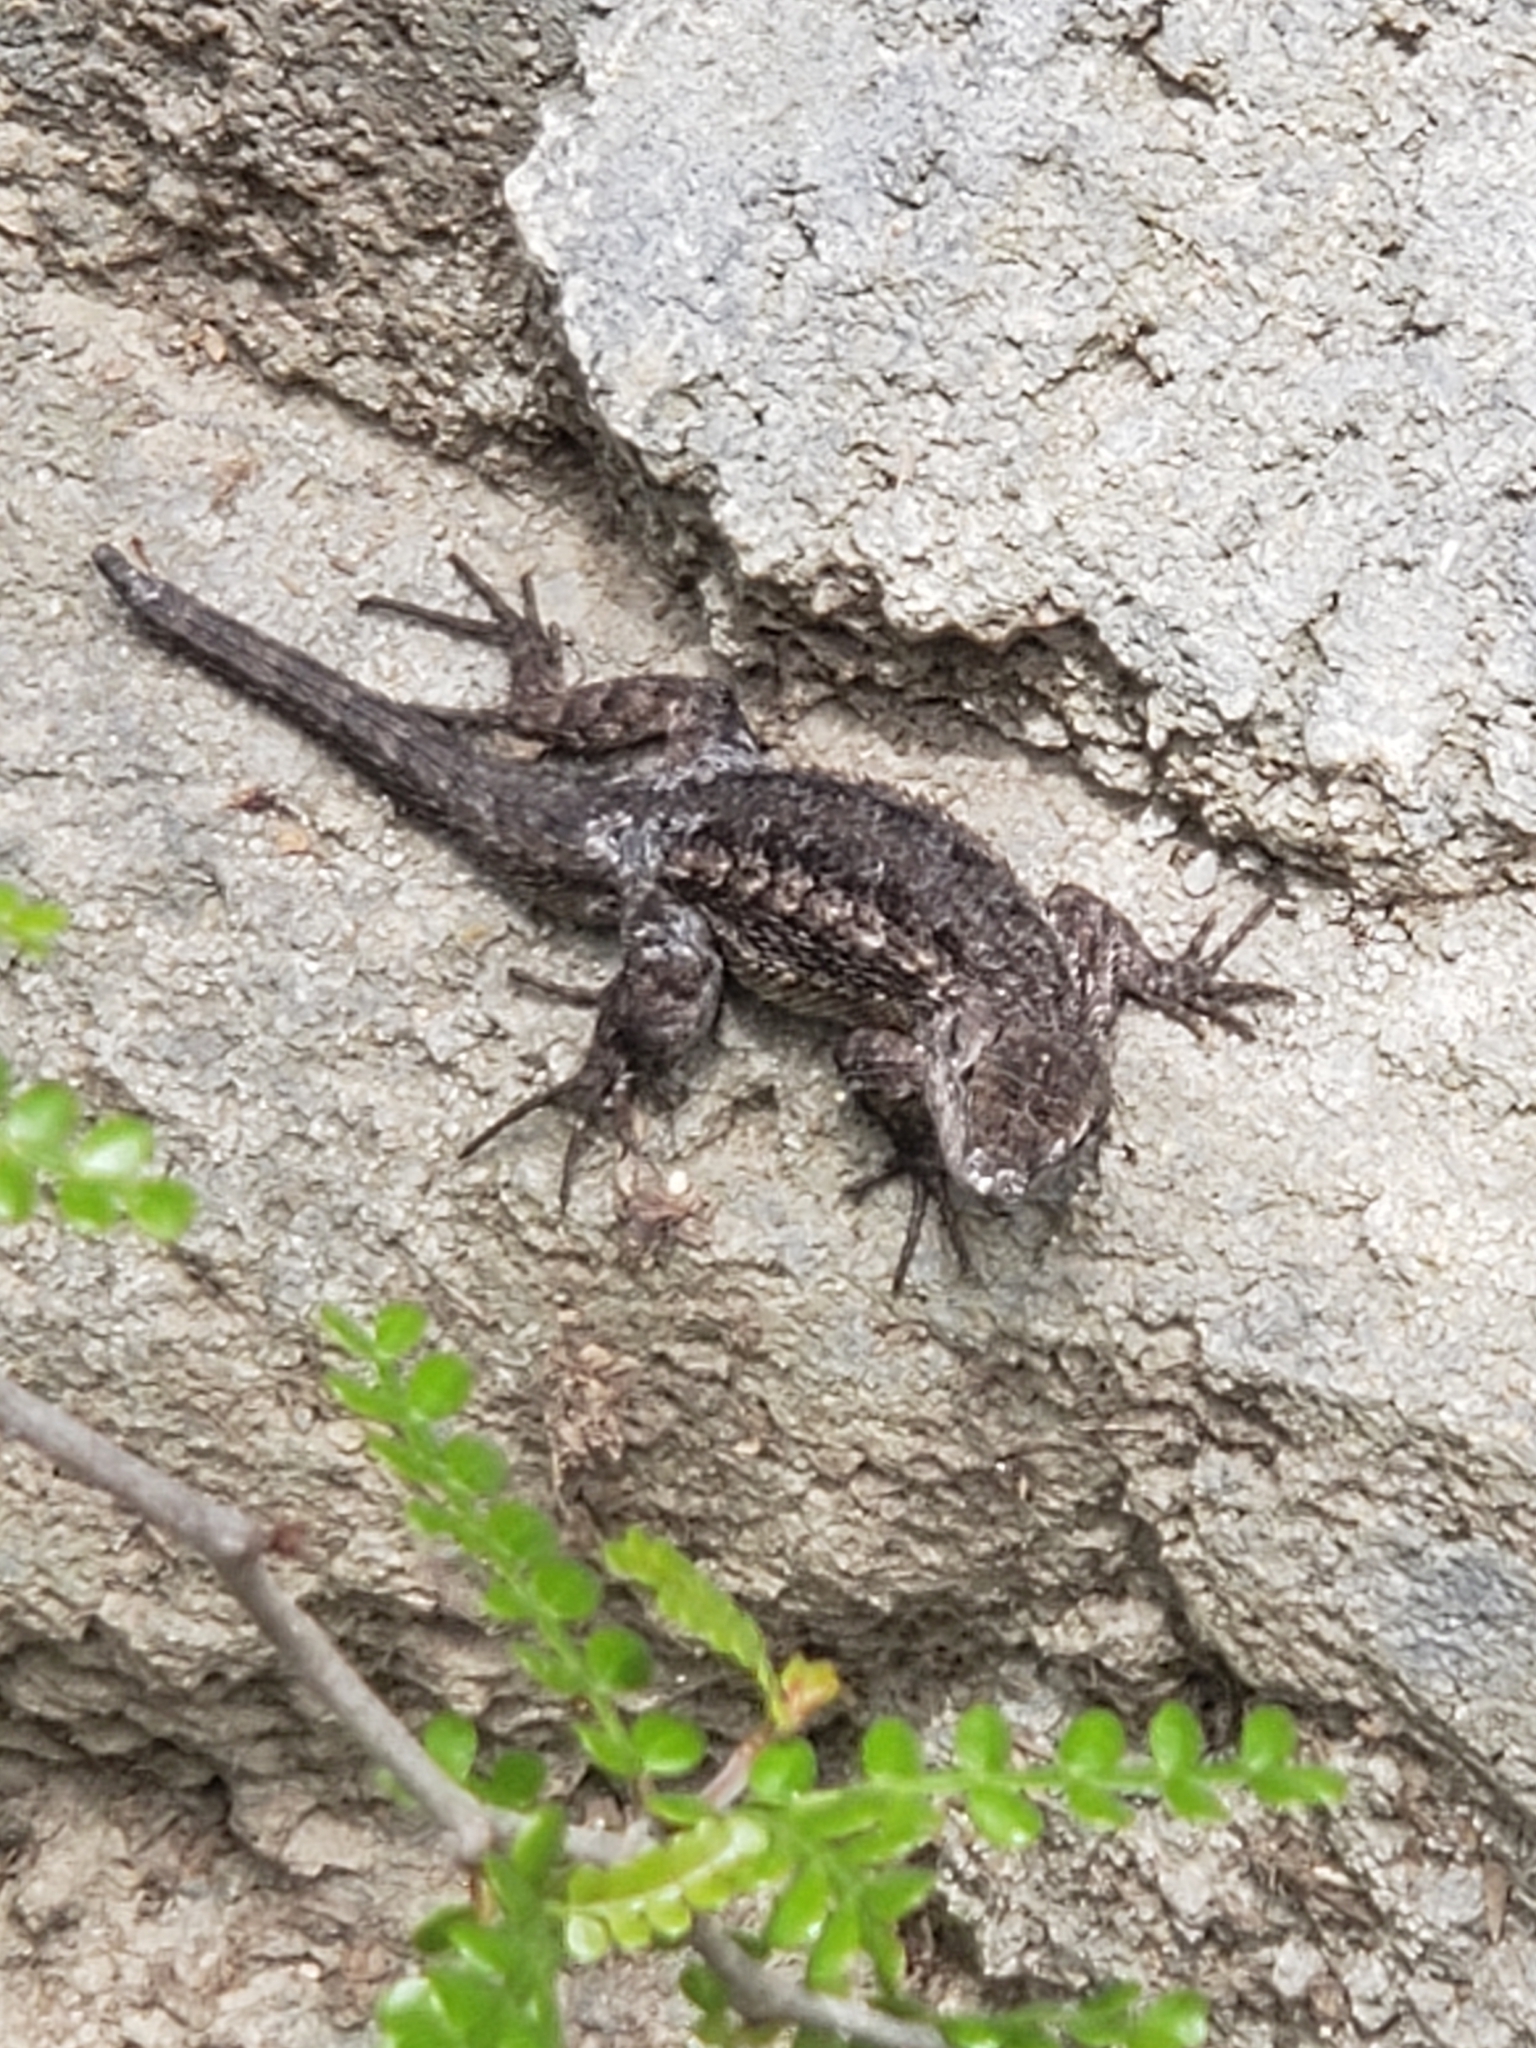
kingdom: Animalia
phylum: Chordata
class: Squamata
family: Phrynosomatidae
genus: Sceloporus
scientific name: Sceloporus occidentalis
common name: Western fence lizard
